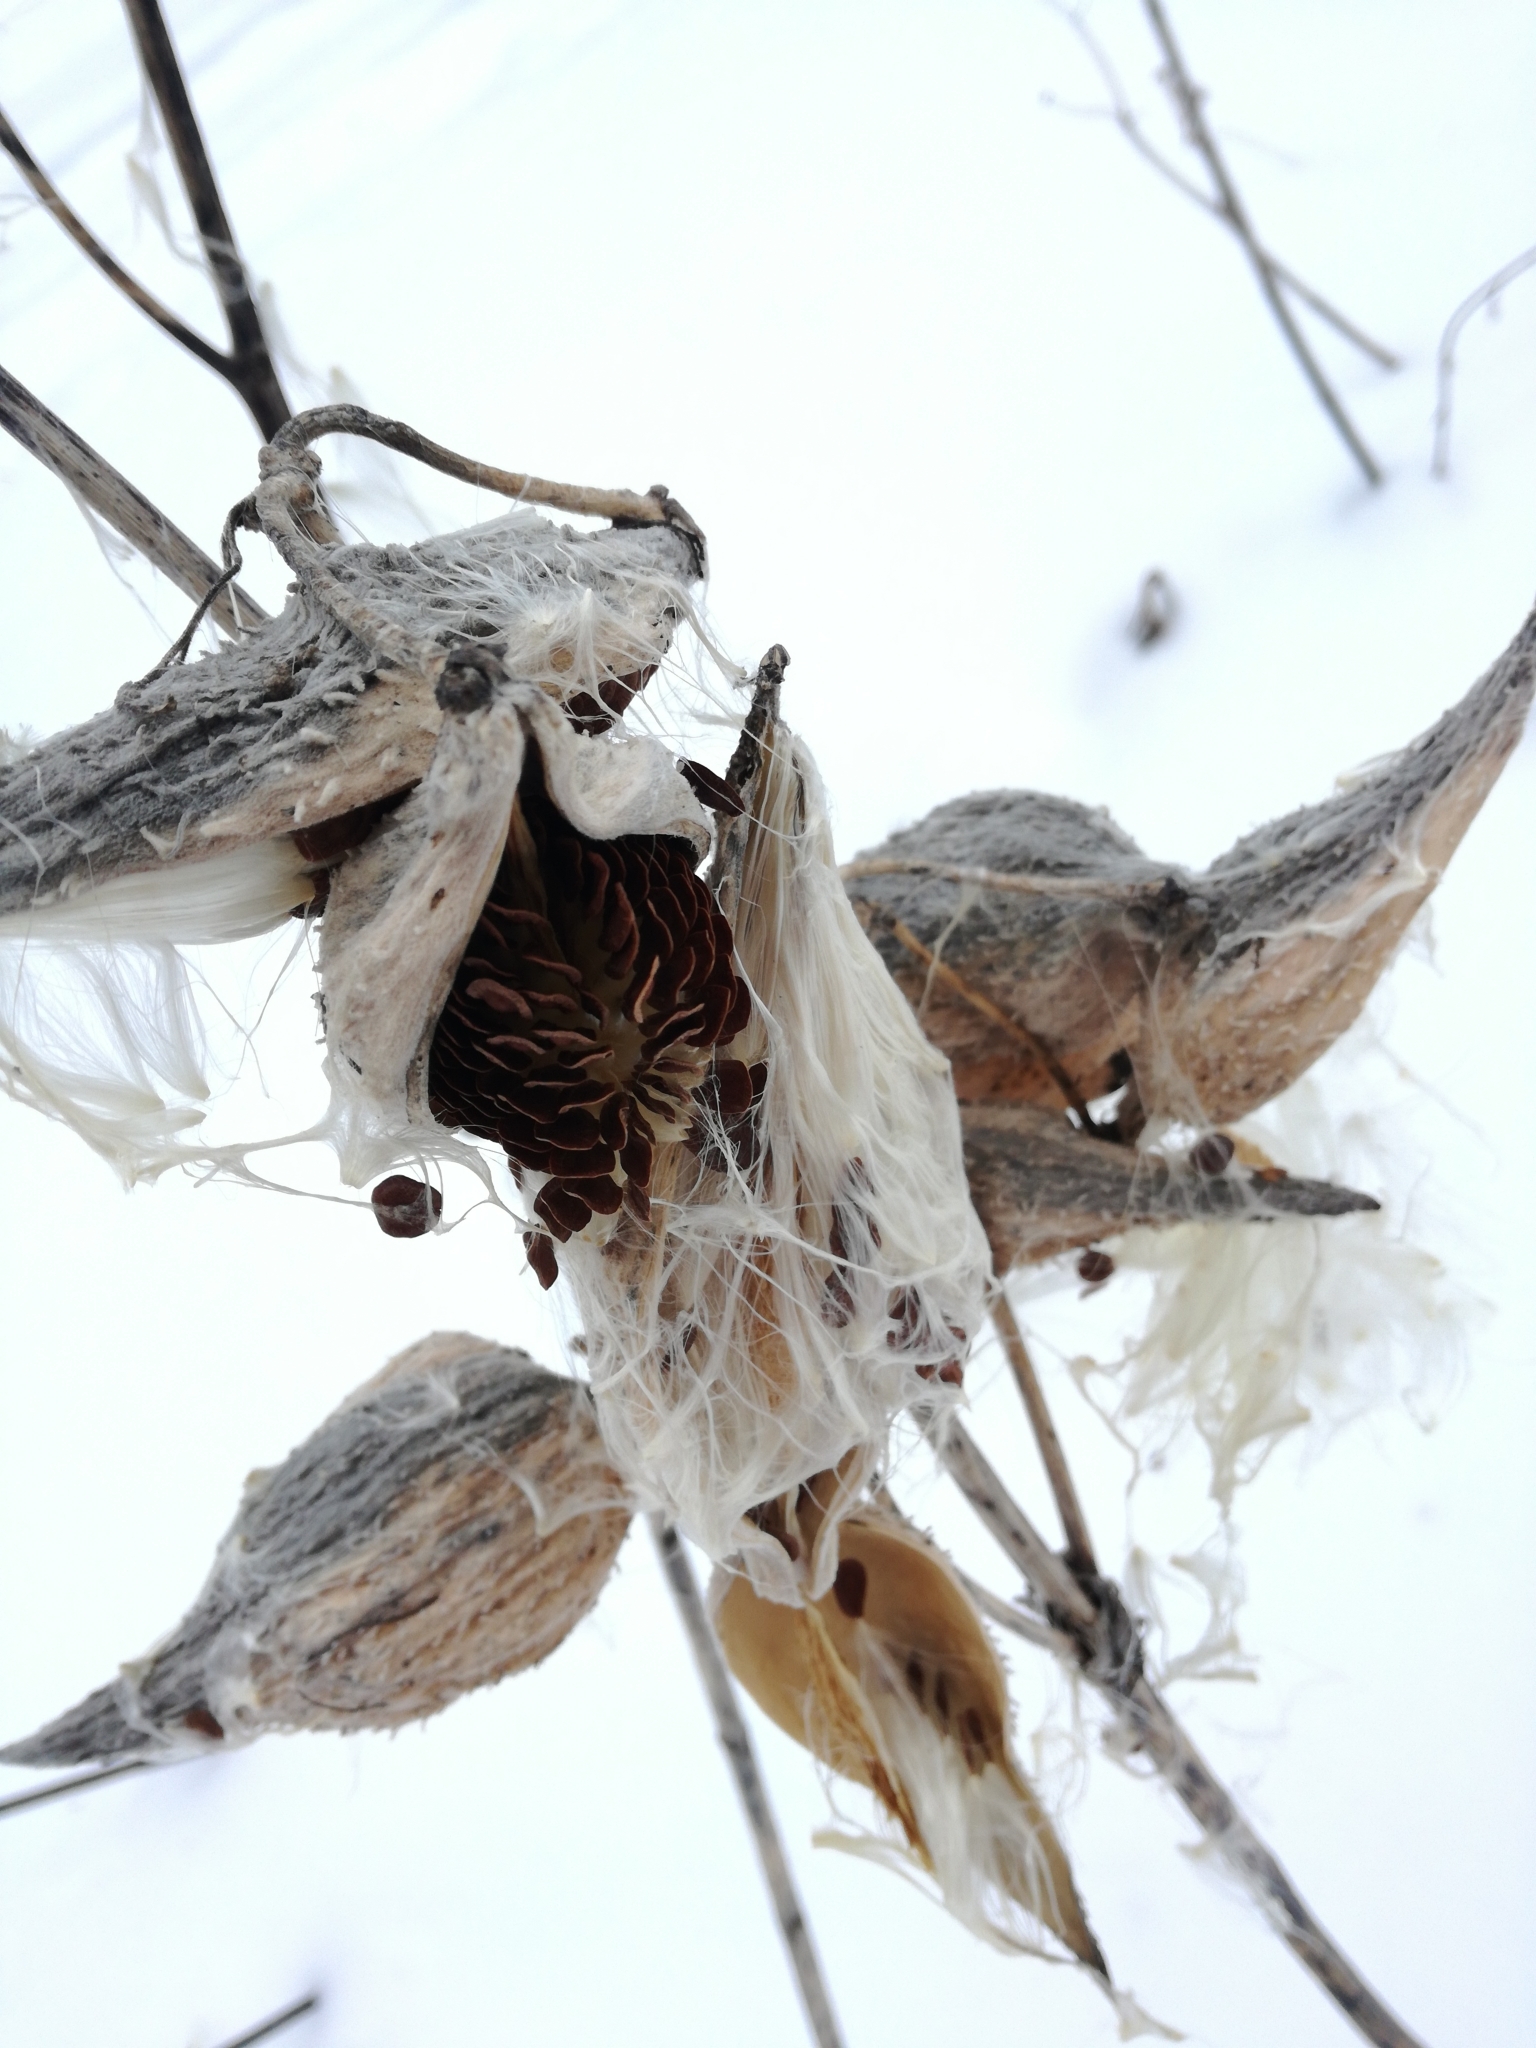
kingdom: Plantae
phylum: Tracheophyta
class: Magnoliopsida
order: Gentianales
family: Apocynaceae
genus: Asclepias
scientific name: Asclepias syriaca
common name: Common milkweed
